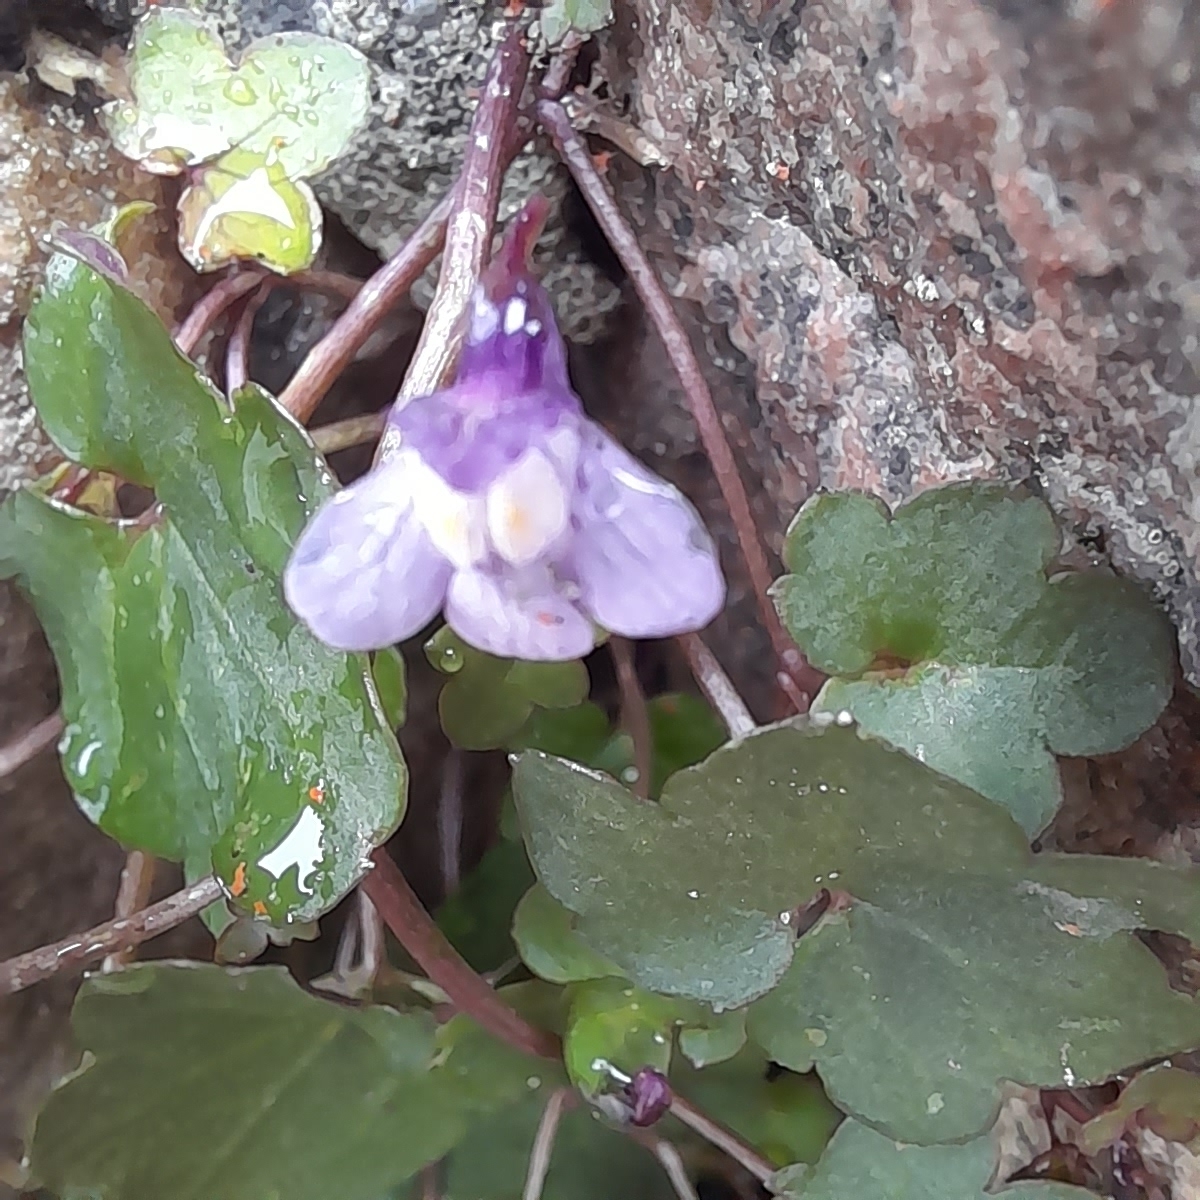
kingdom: Plantae
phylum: Tracheophyta
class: Magnoliopsida
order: Lamiales
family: Plantaginaceae
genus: Cymbalaria
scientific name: Cymbalaria muralis
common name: Ivy-leaved toadflax
